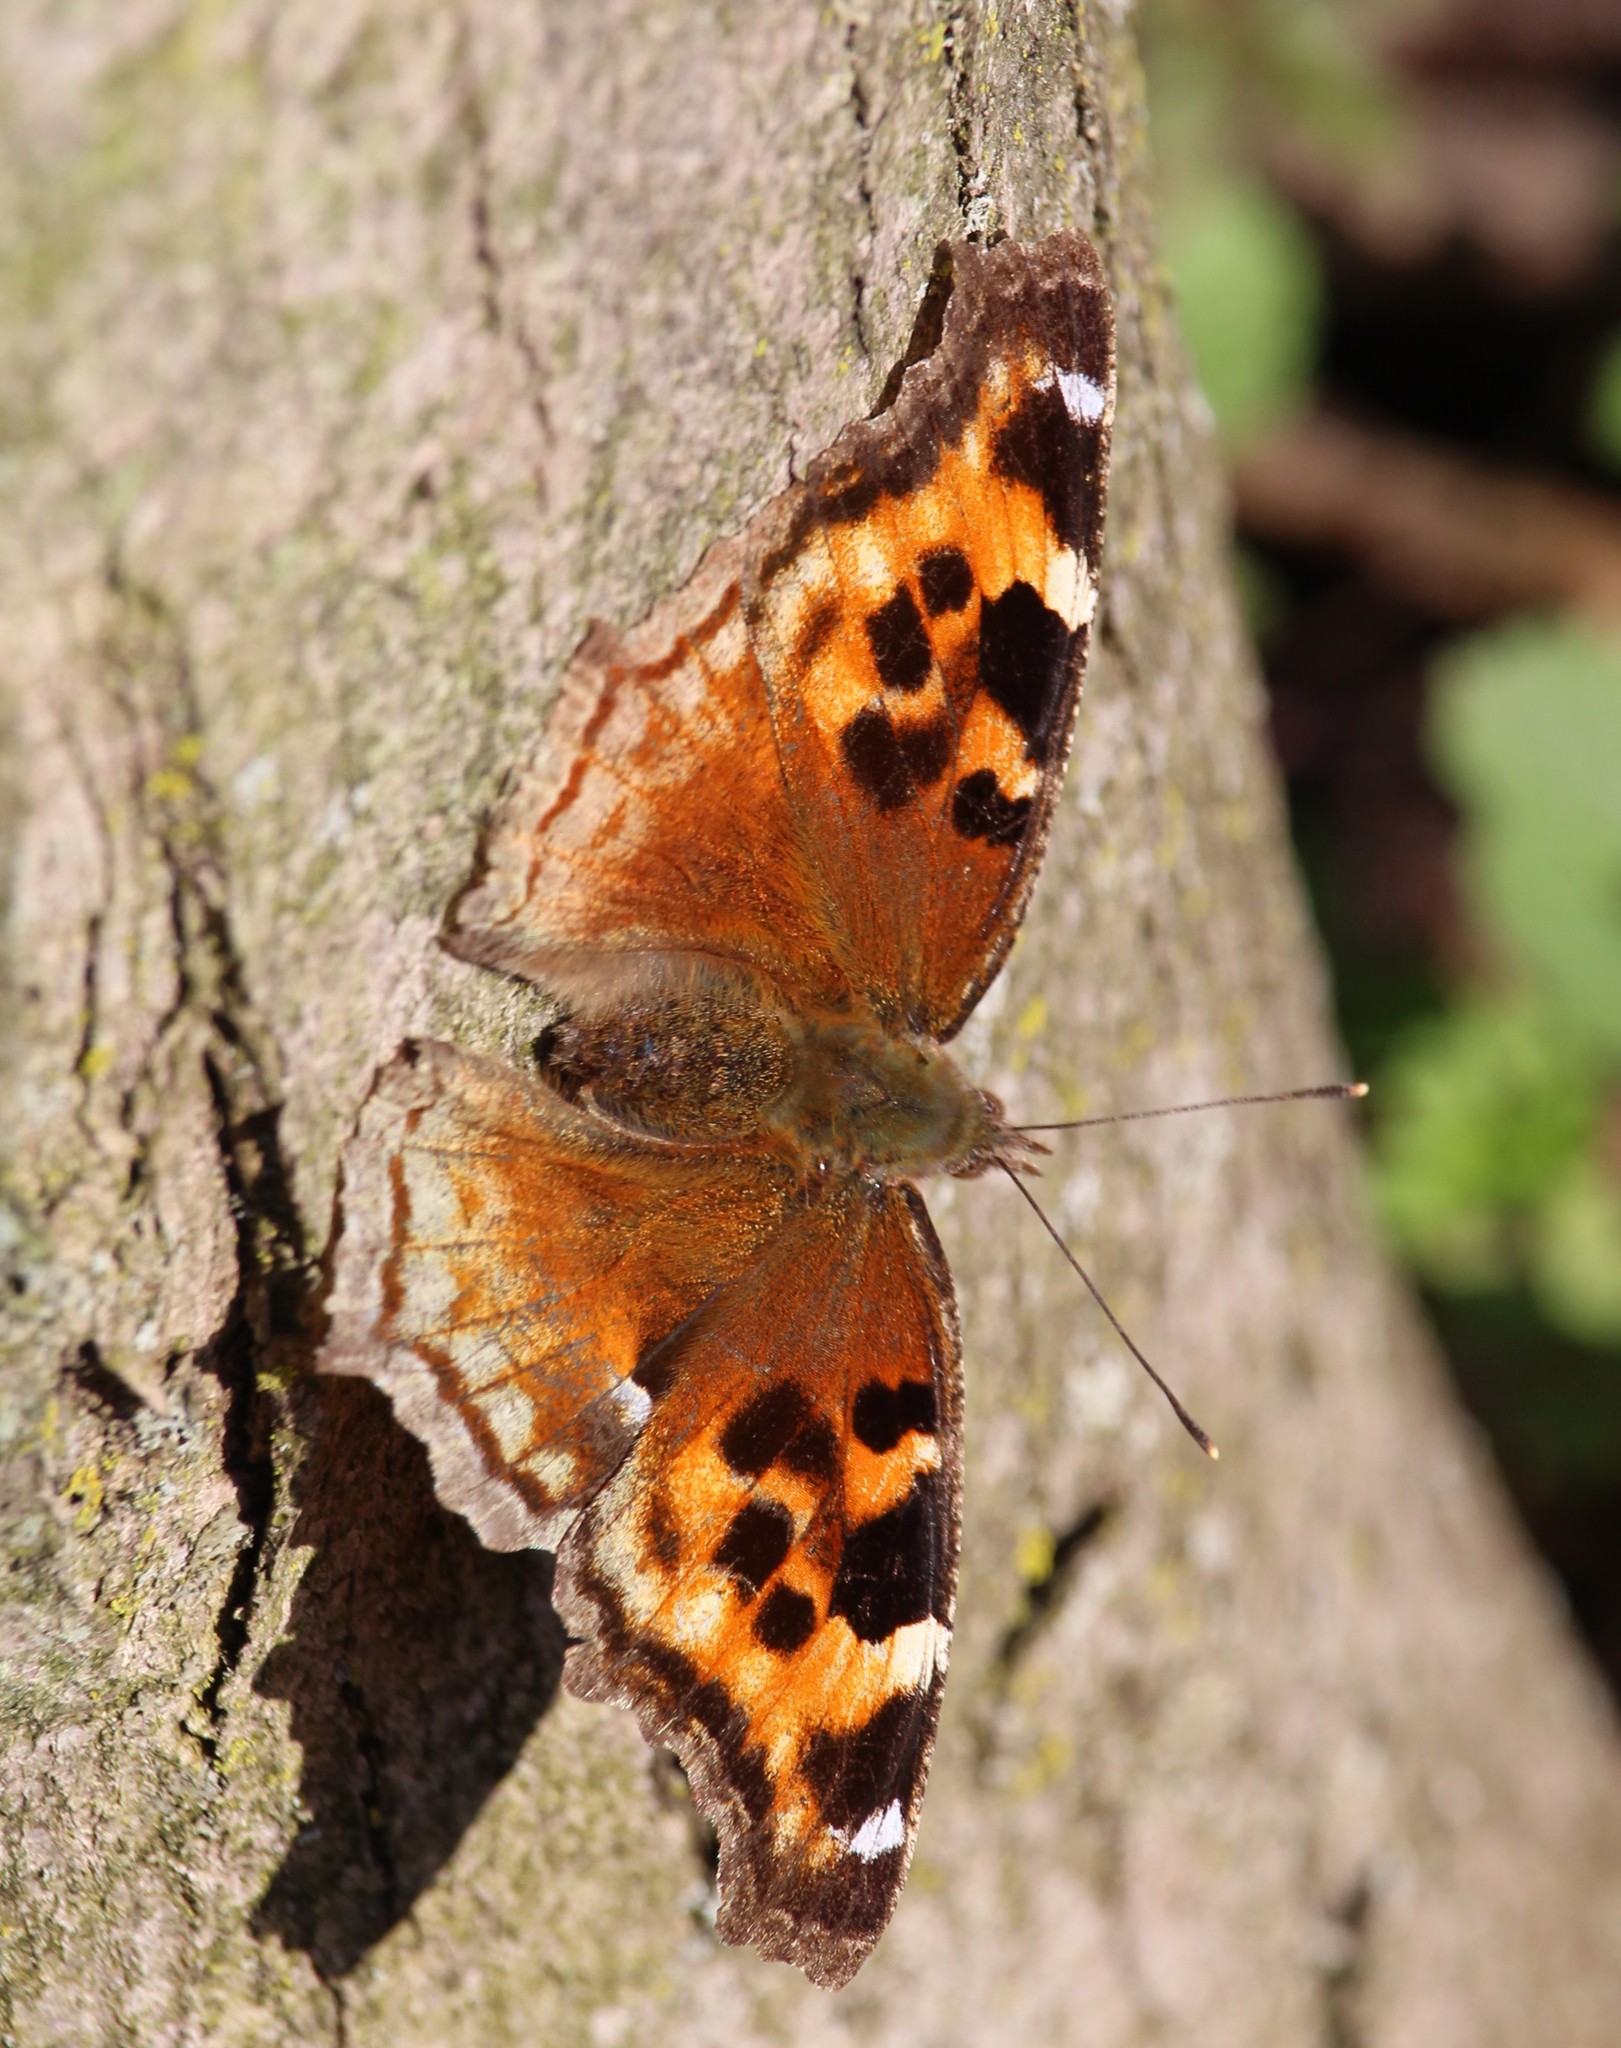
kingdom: Animalia
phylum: Arthropoda
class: Insecta
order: Lepidoptera
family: Nymphalidae
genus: Polygonia
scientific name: Polygonia vaualbum
